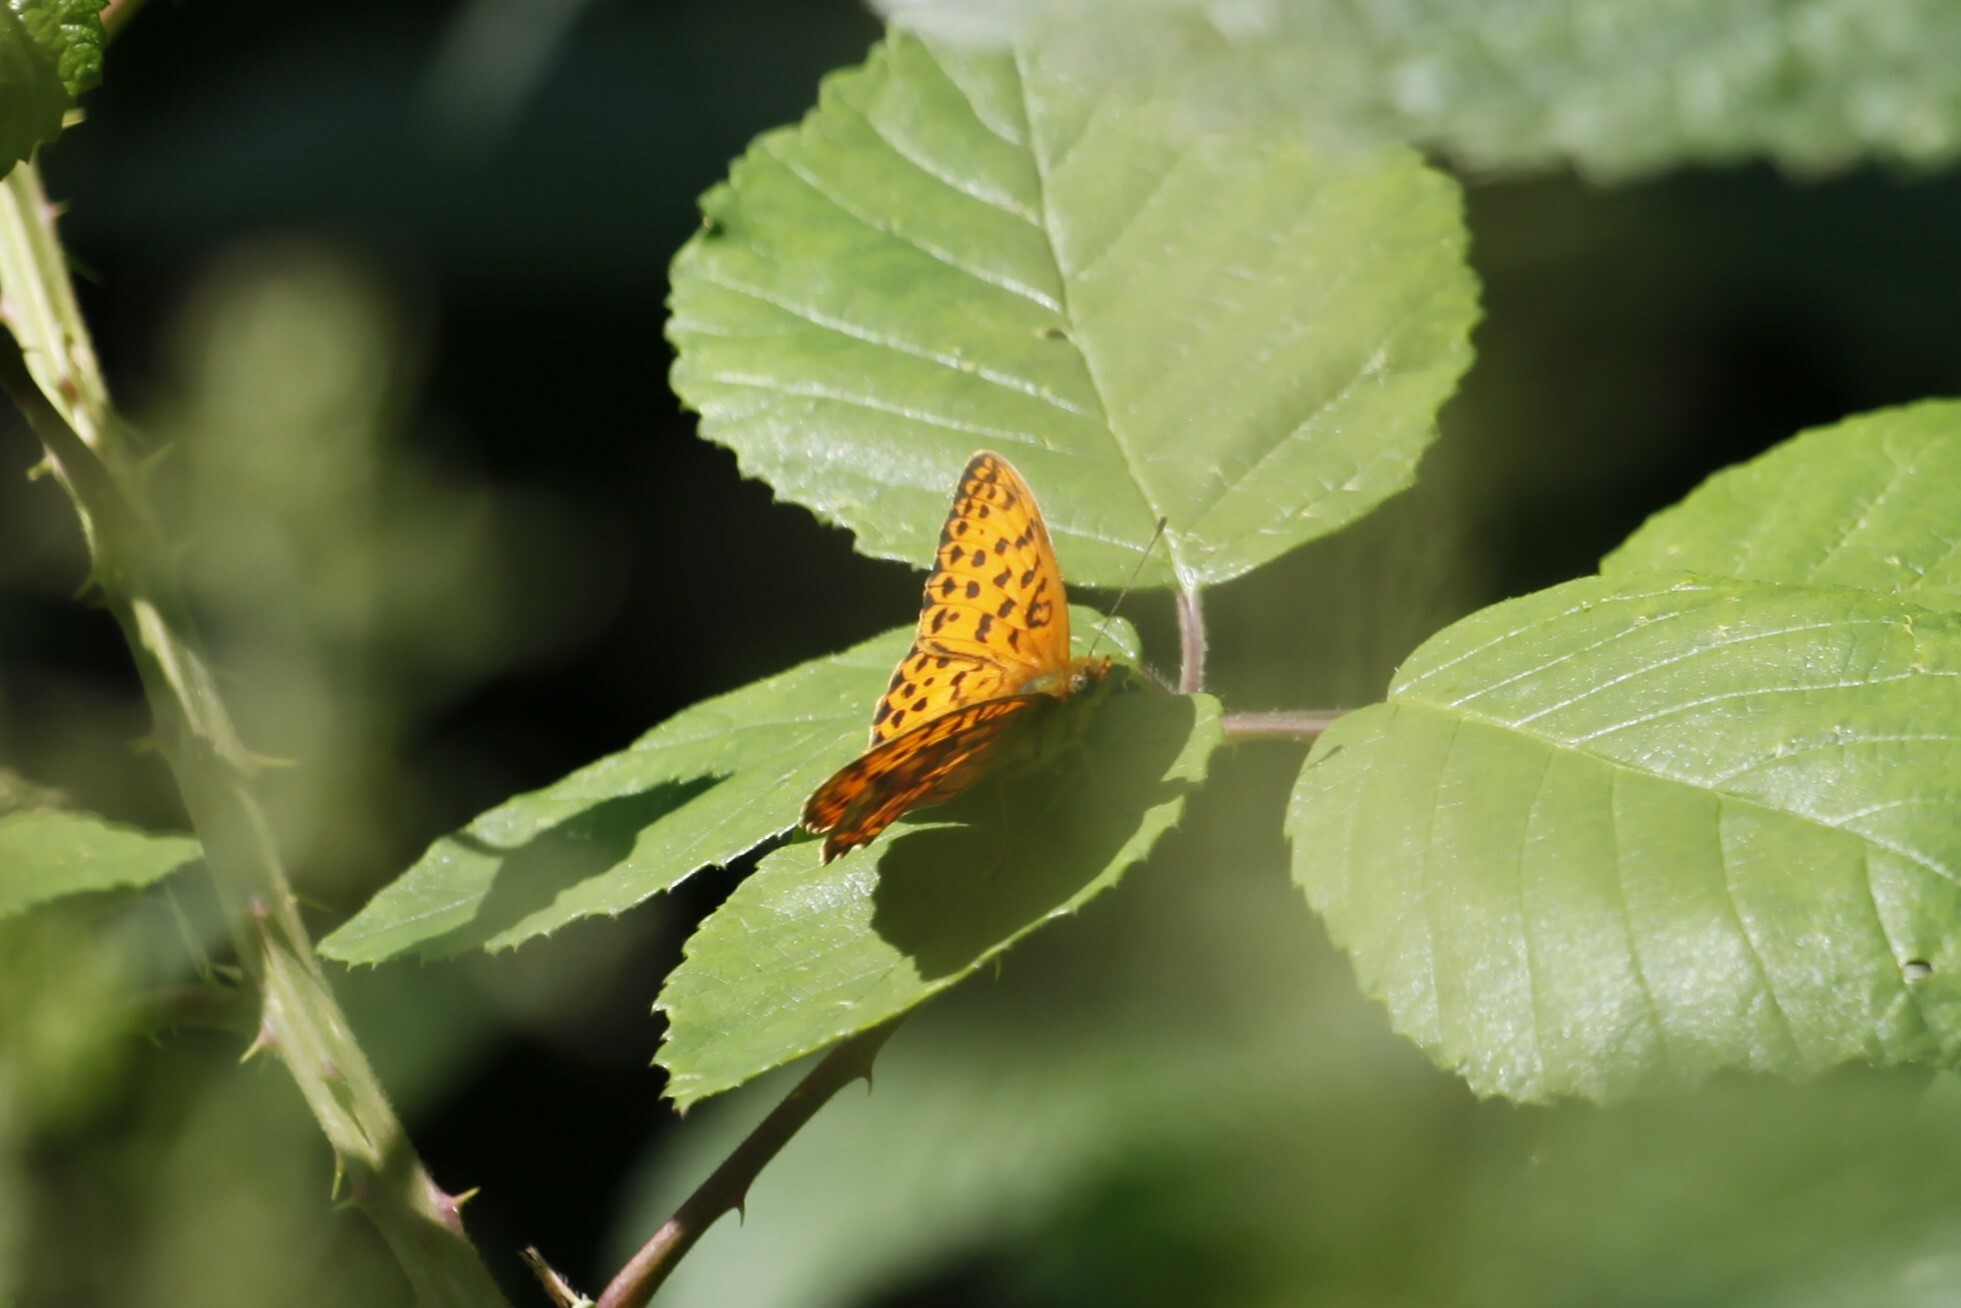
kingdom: Animalia
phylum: Arthropoda
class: Insecta
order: Lepidoptera
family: Nymphalidae
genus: Brenthis
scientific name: Brenthis daphne
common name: Marbled fritillary
